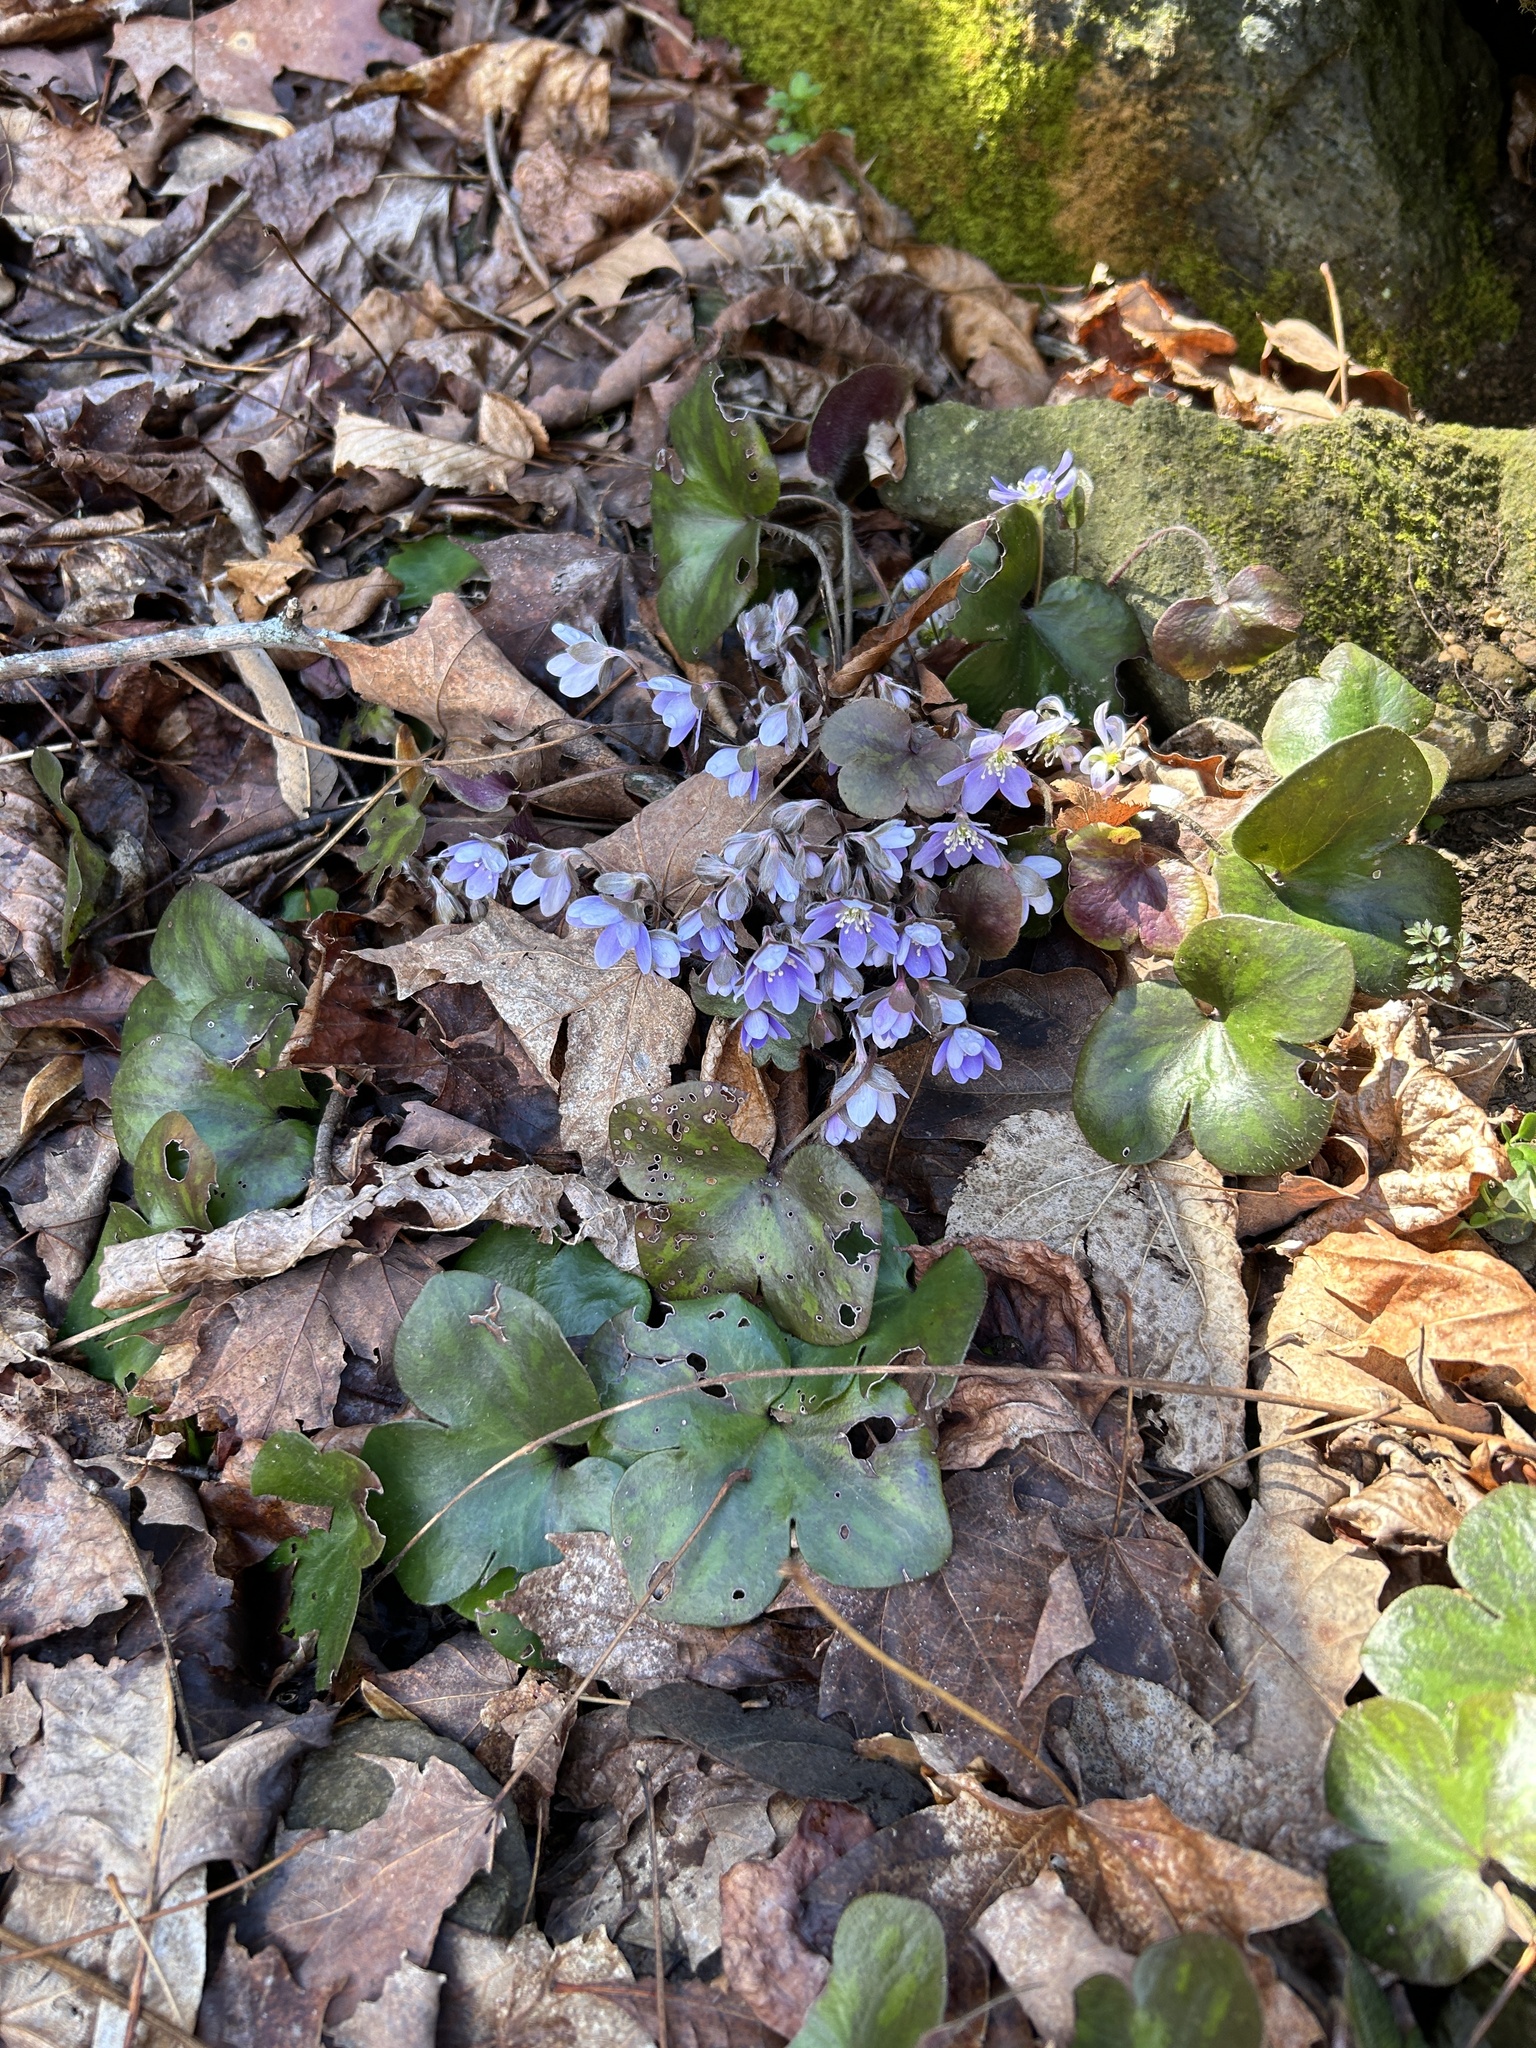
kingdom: Plantae
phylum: Tracheophyta
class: Magnoliopsida
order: Ranunculales
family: Ranunculaceae
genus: Hepatica
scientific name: Hepatica americana
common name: American hepatica
